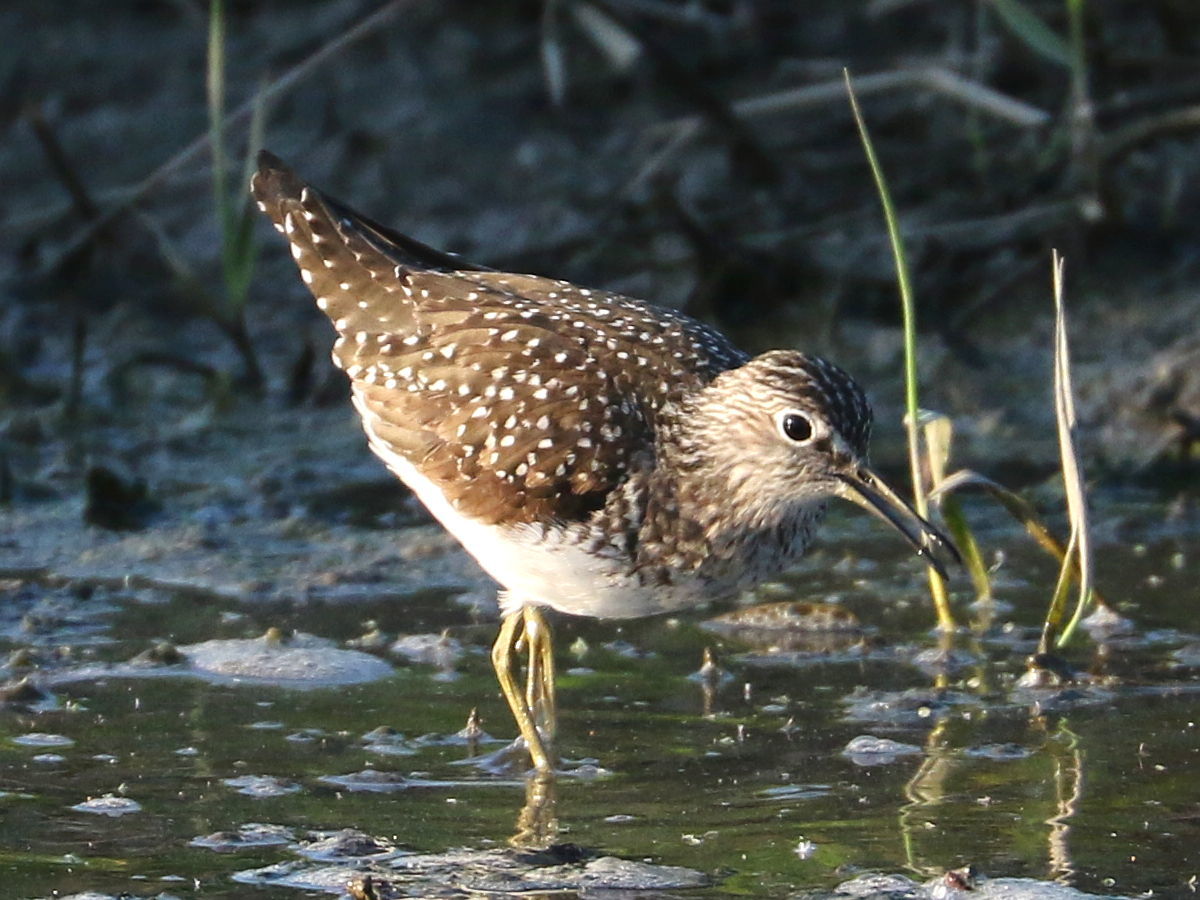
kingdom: Animalia
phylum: Chordata
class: Aves
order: Charadriiformes
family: Scolopacidae
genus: Tringa
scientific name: Tringa solitaria
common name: Solitary sandpiper
